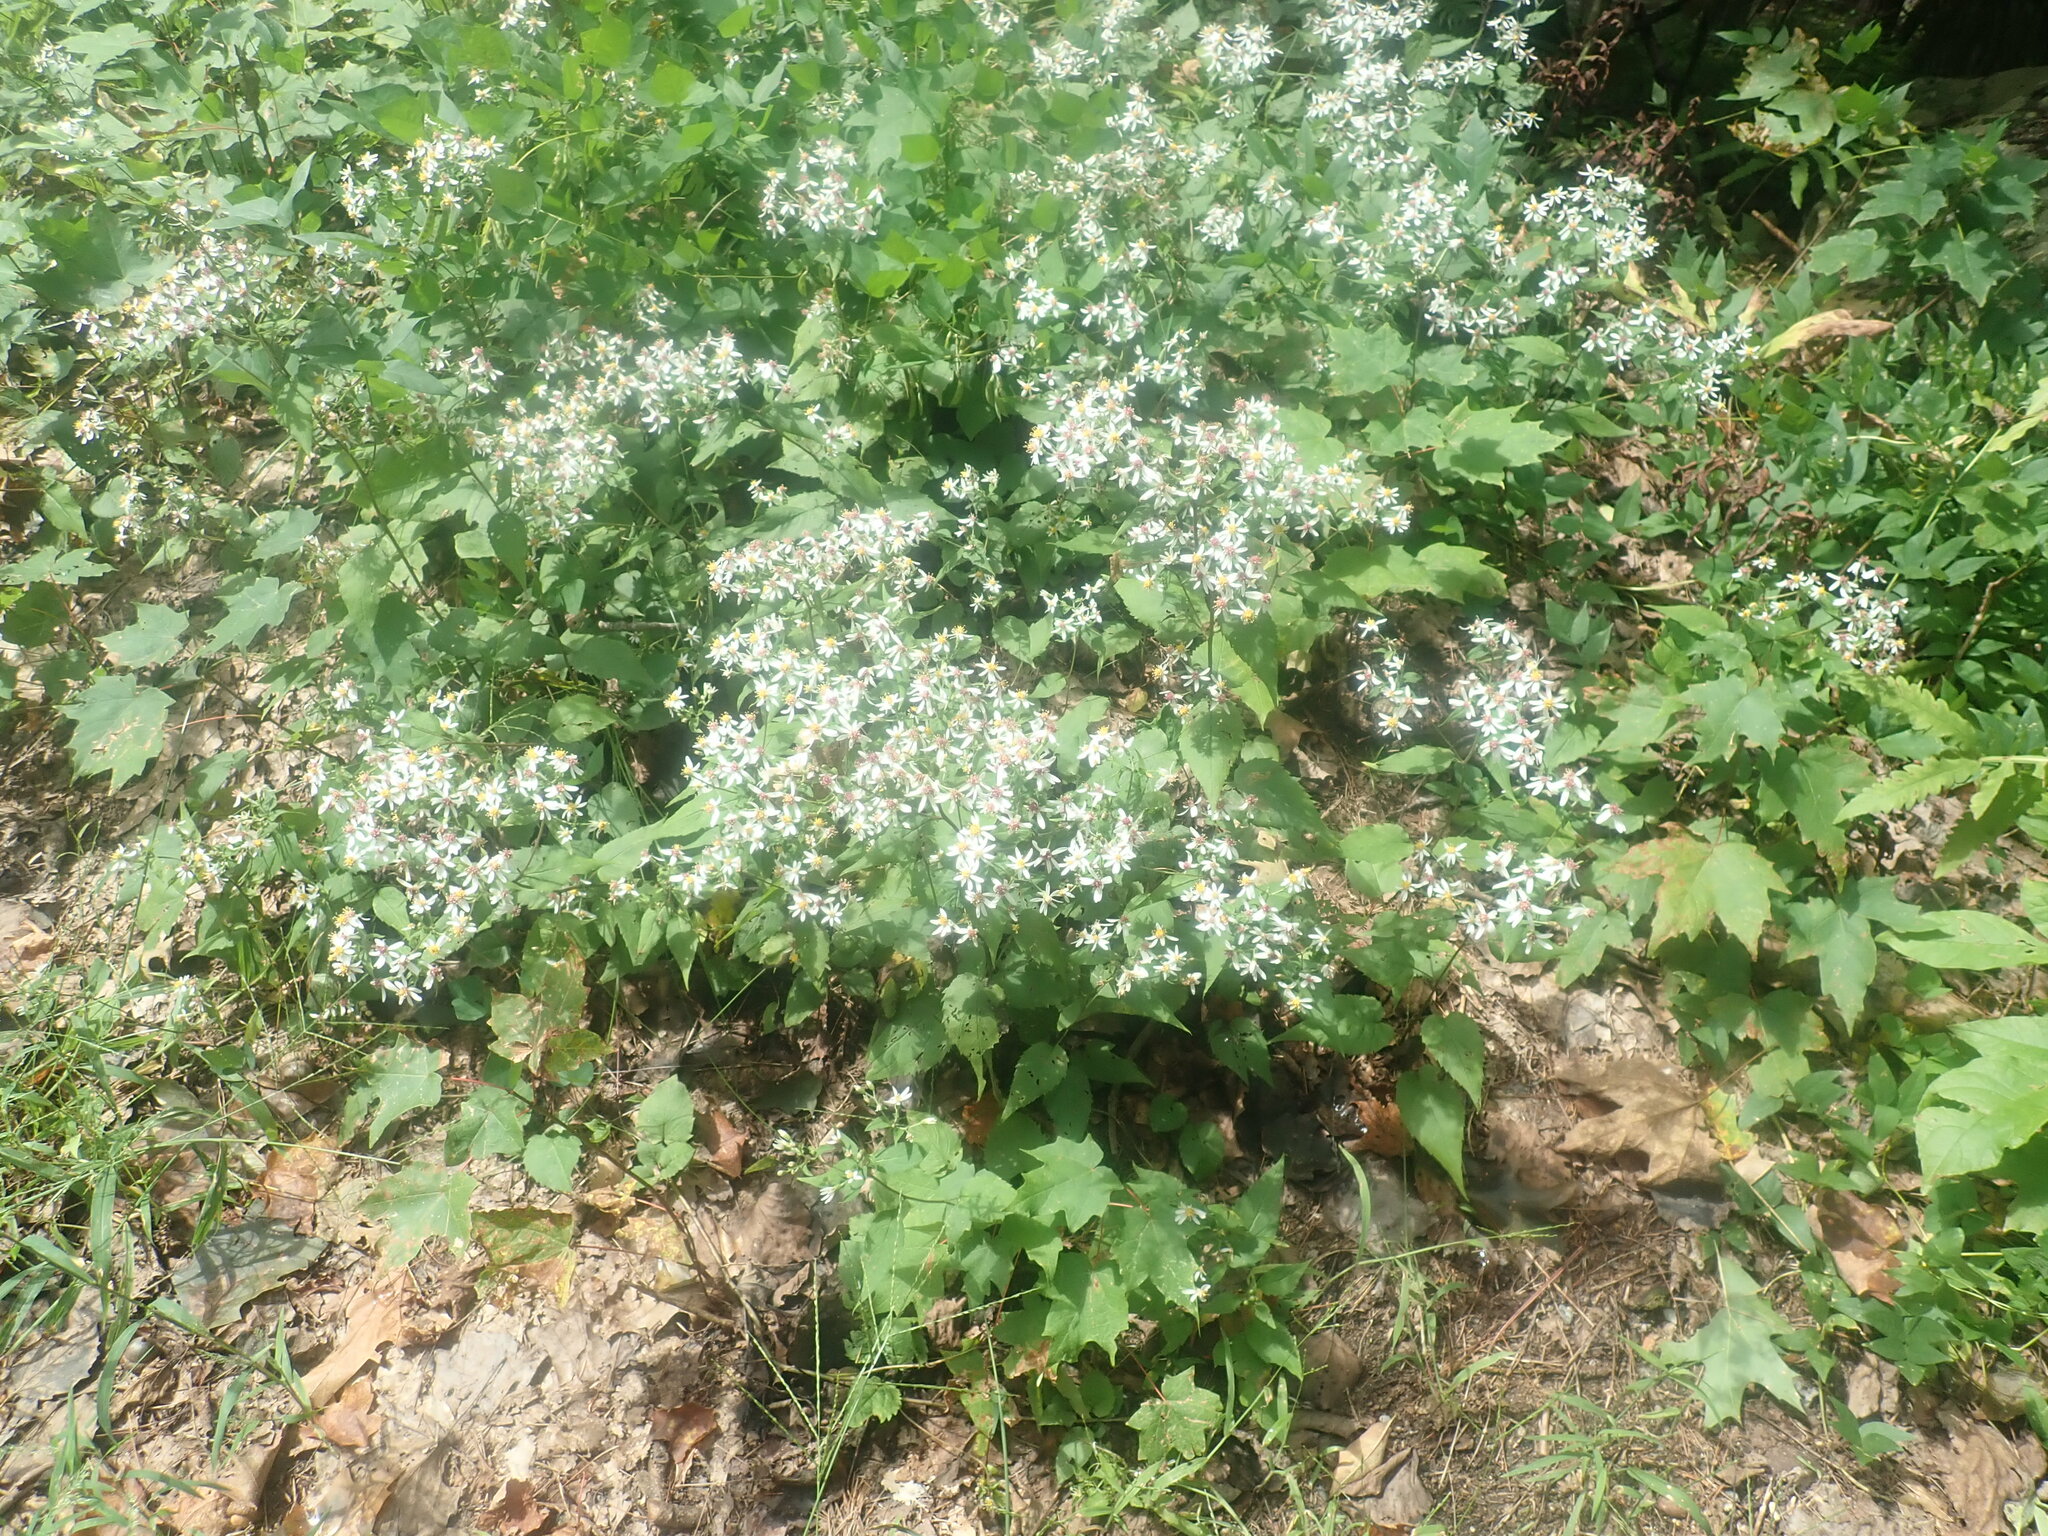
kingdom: Plantae
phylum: Tracheophyta
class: Magnoliopsida
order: Asterales
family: Asteraceae
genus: Eurybia
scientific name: Eurybia divaricata
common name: White wood aster
